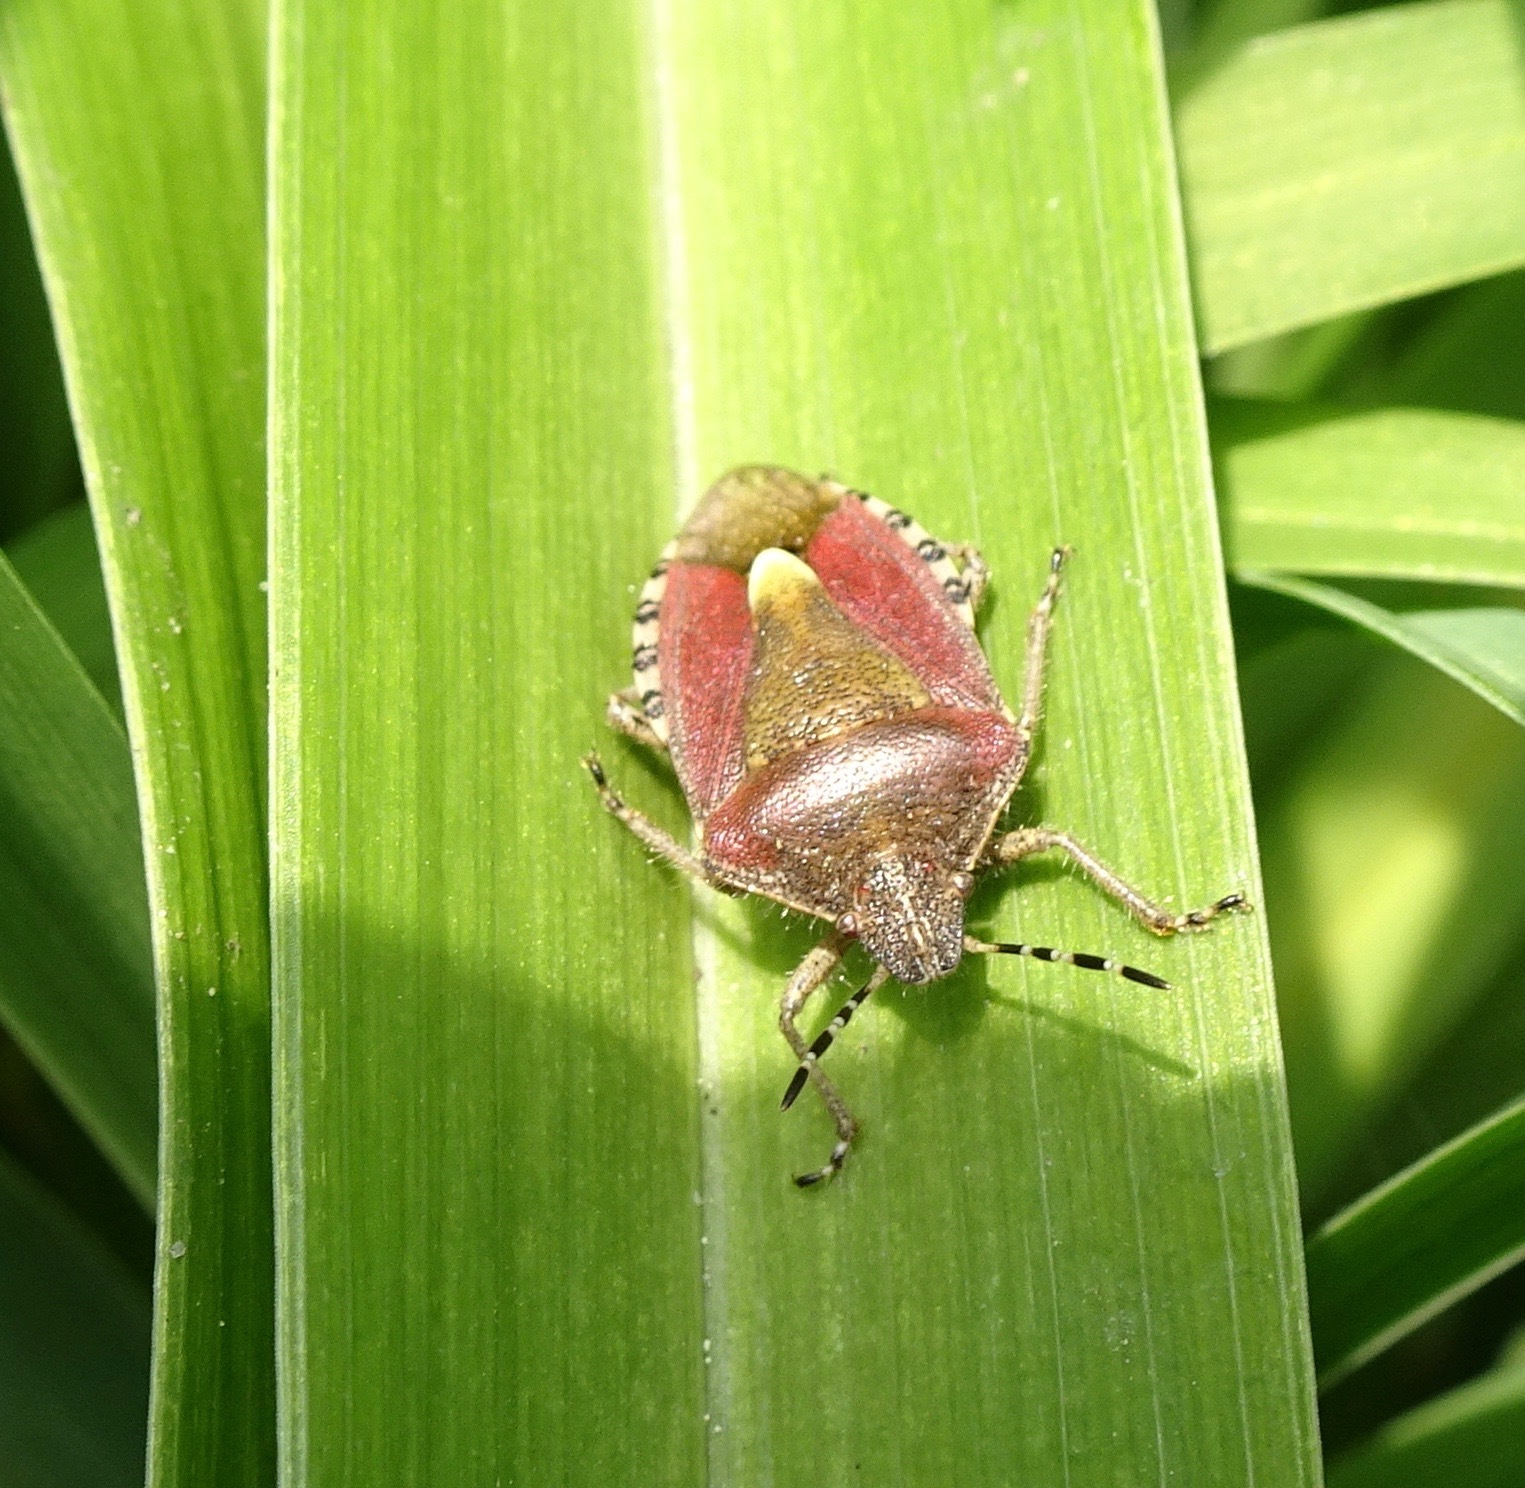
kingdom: Animalia
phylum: Arthropoda
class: Insecta
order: Hemiptera
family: Pentatomidae
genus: Dolycoris
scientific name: Dolycoris baccarum
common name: Sloe bug
